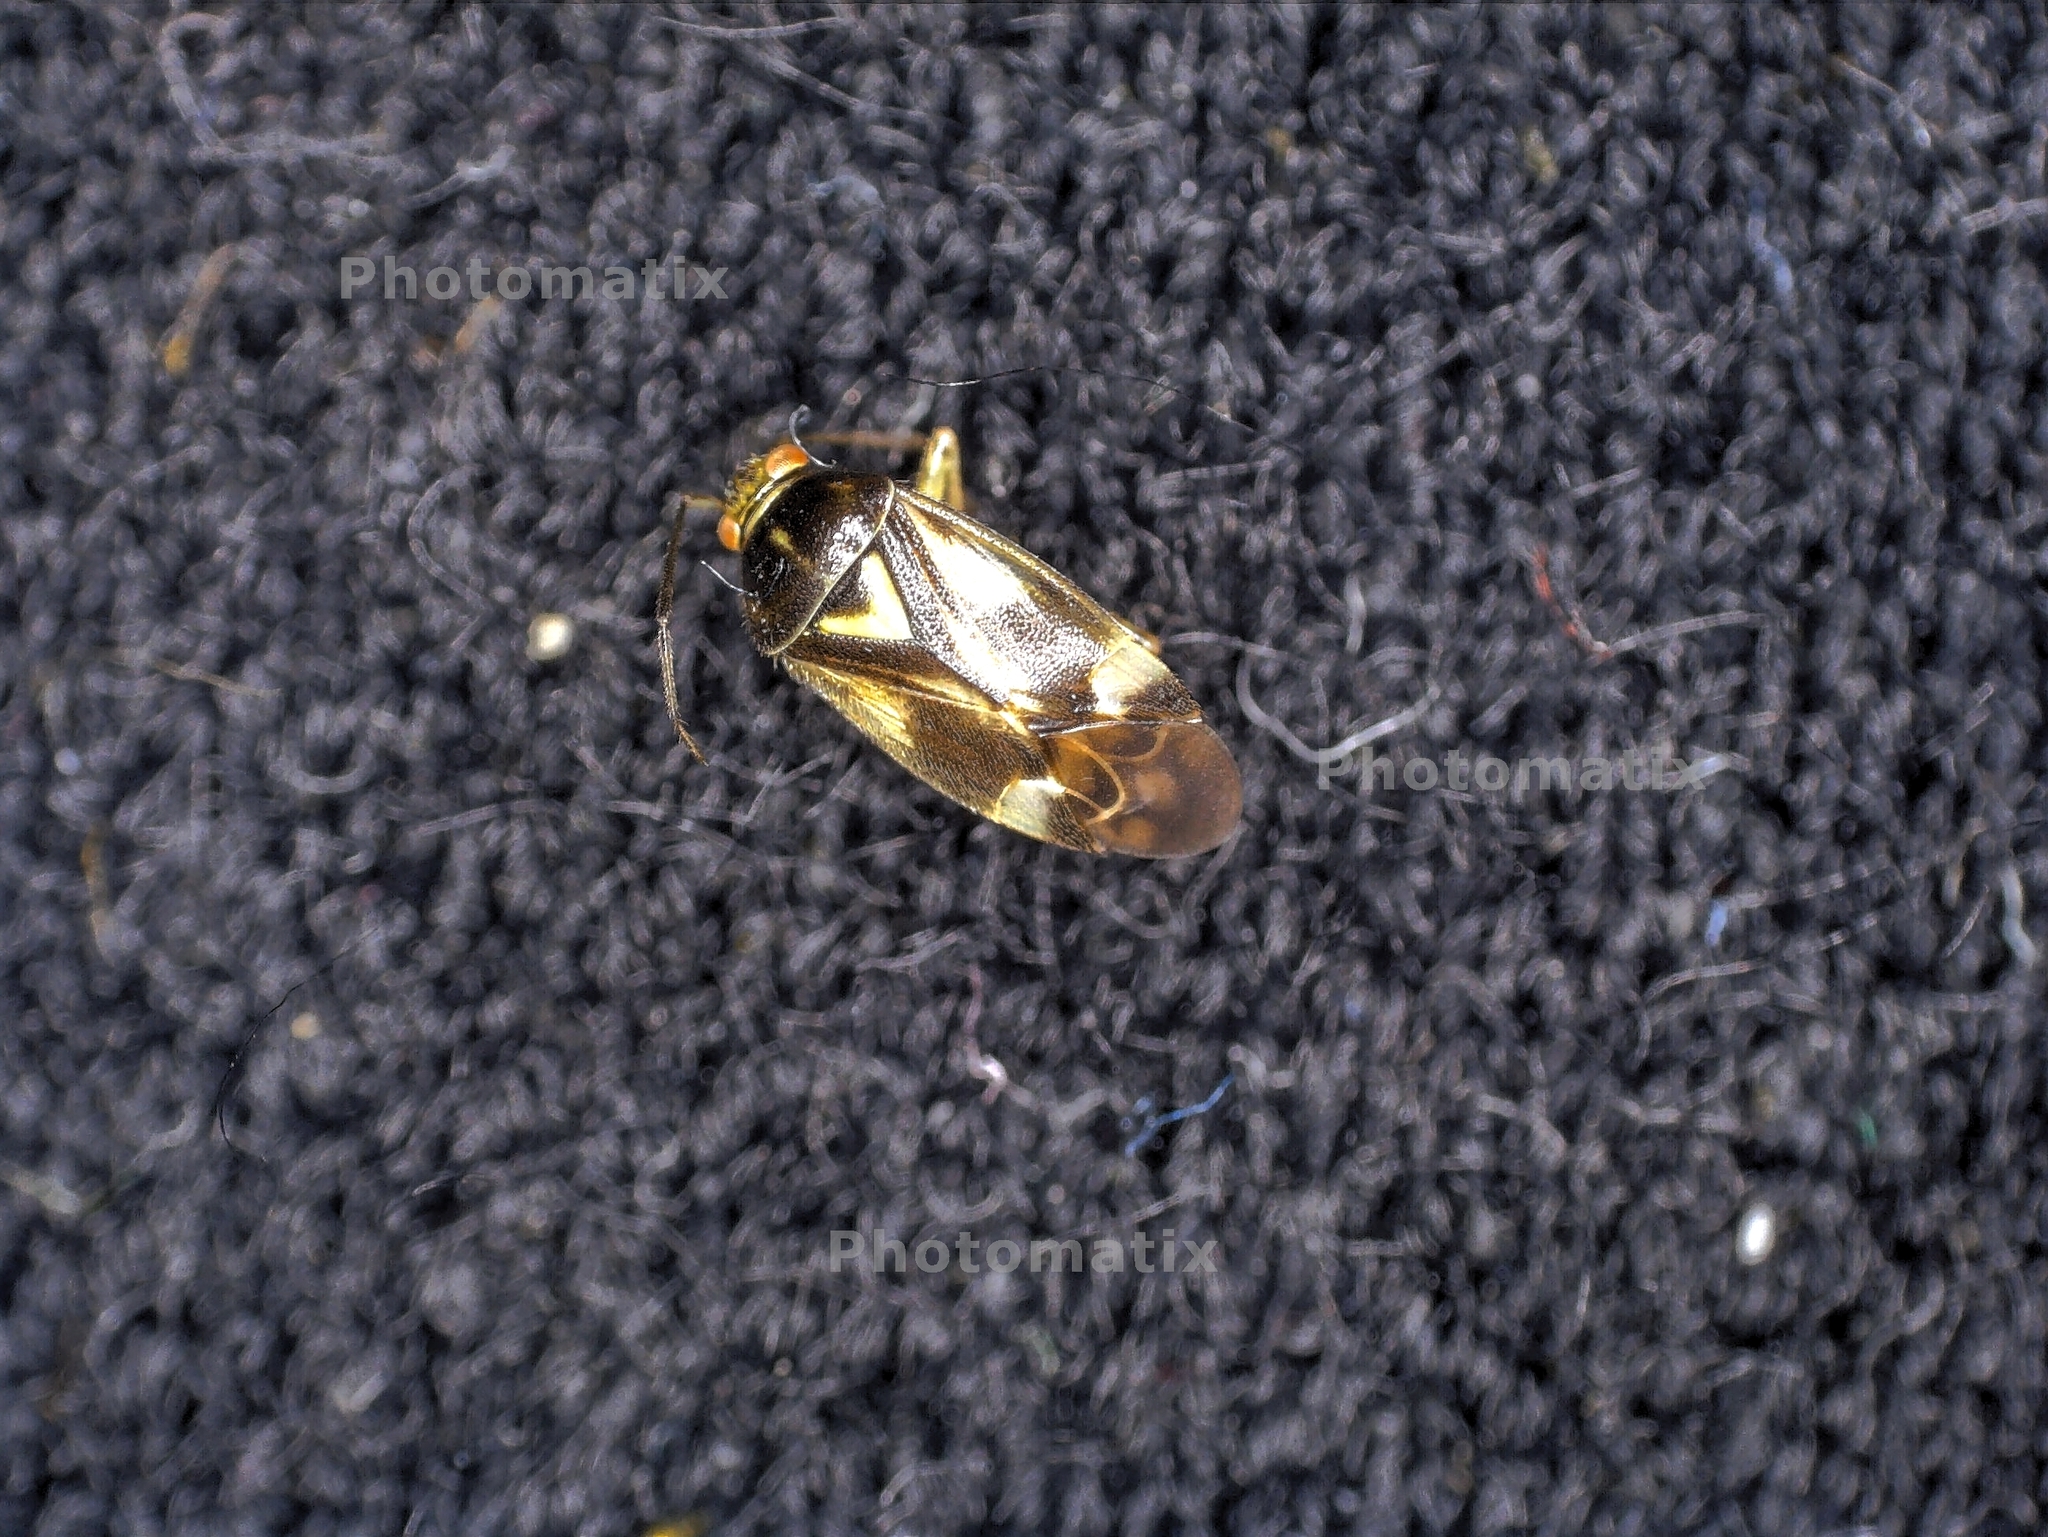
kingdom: Animalia
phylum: Arthropoda
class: Insecta
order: Hemiptera
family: Miridae
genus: Orthops
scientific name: Orthops basalis
